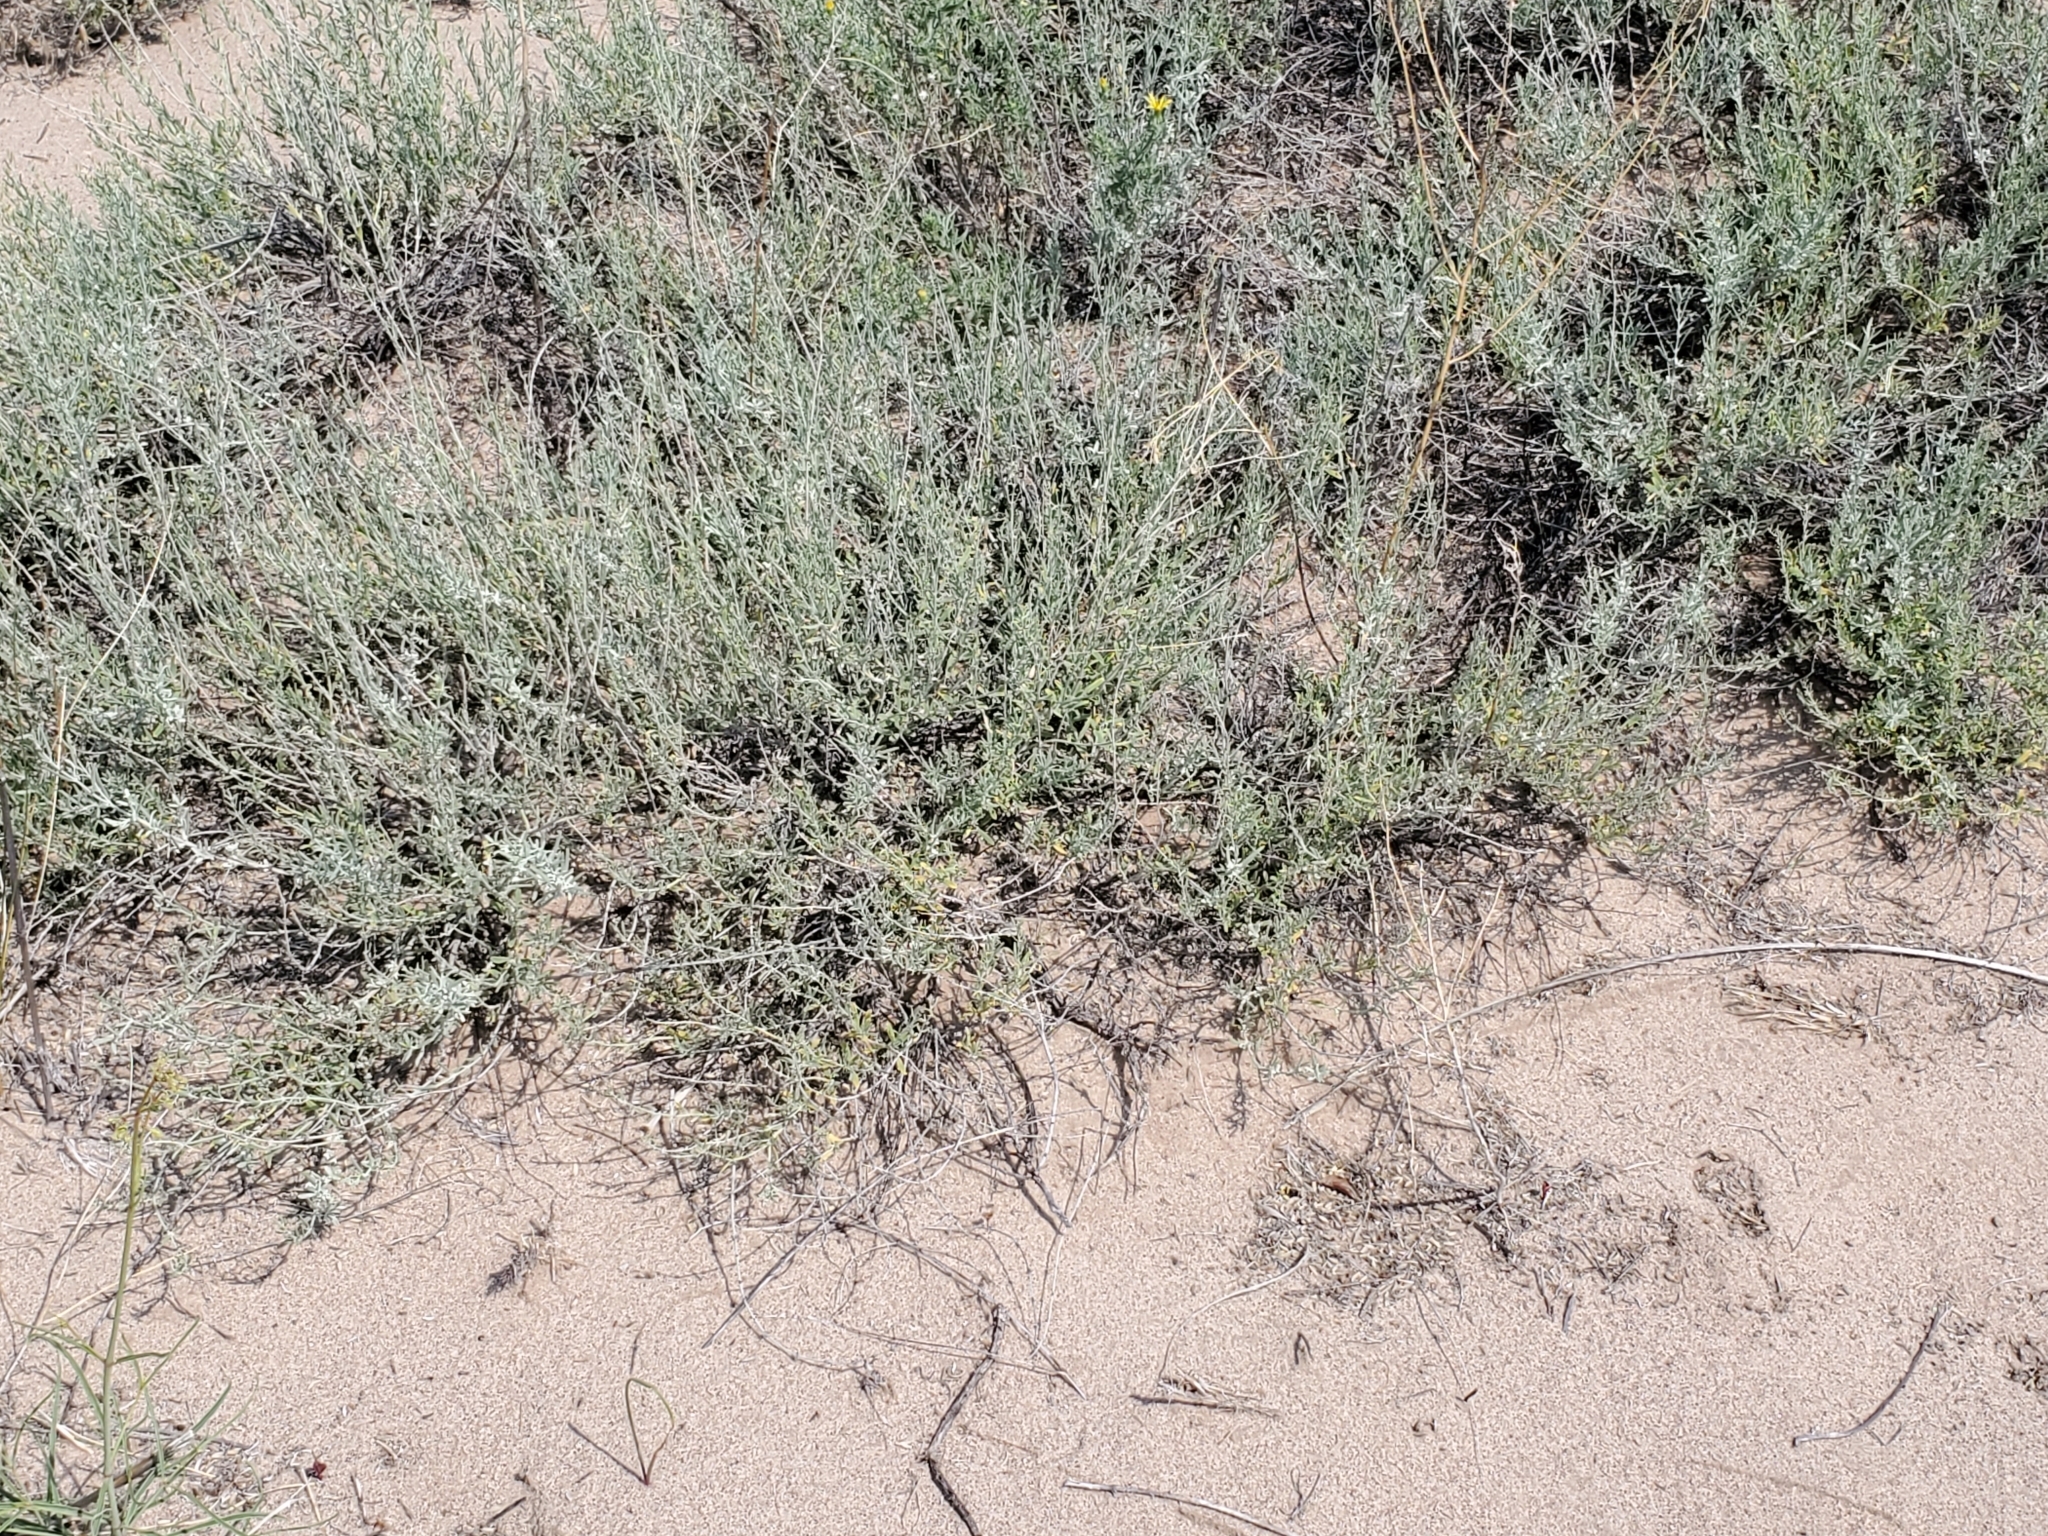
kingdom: Plantae
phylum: Tracheophyta
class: Magnoliopsida
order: Lamiales
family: Lamiaceae
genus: Poliomintha
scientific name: Poliomintha incana
